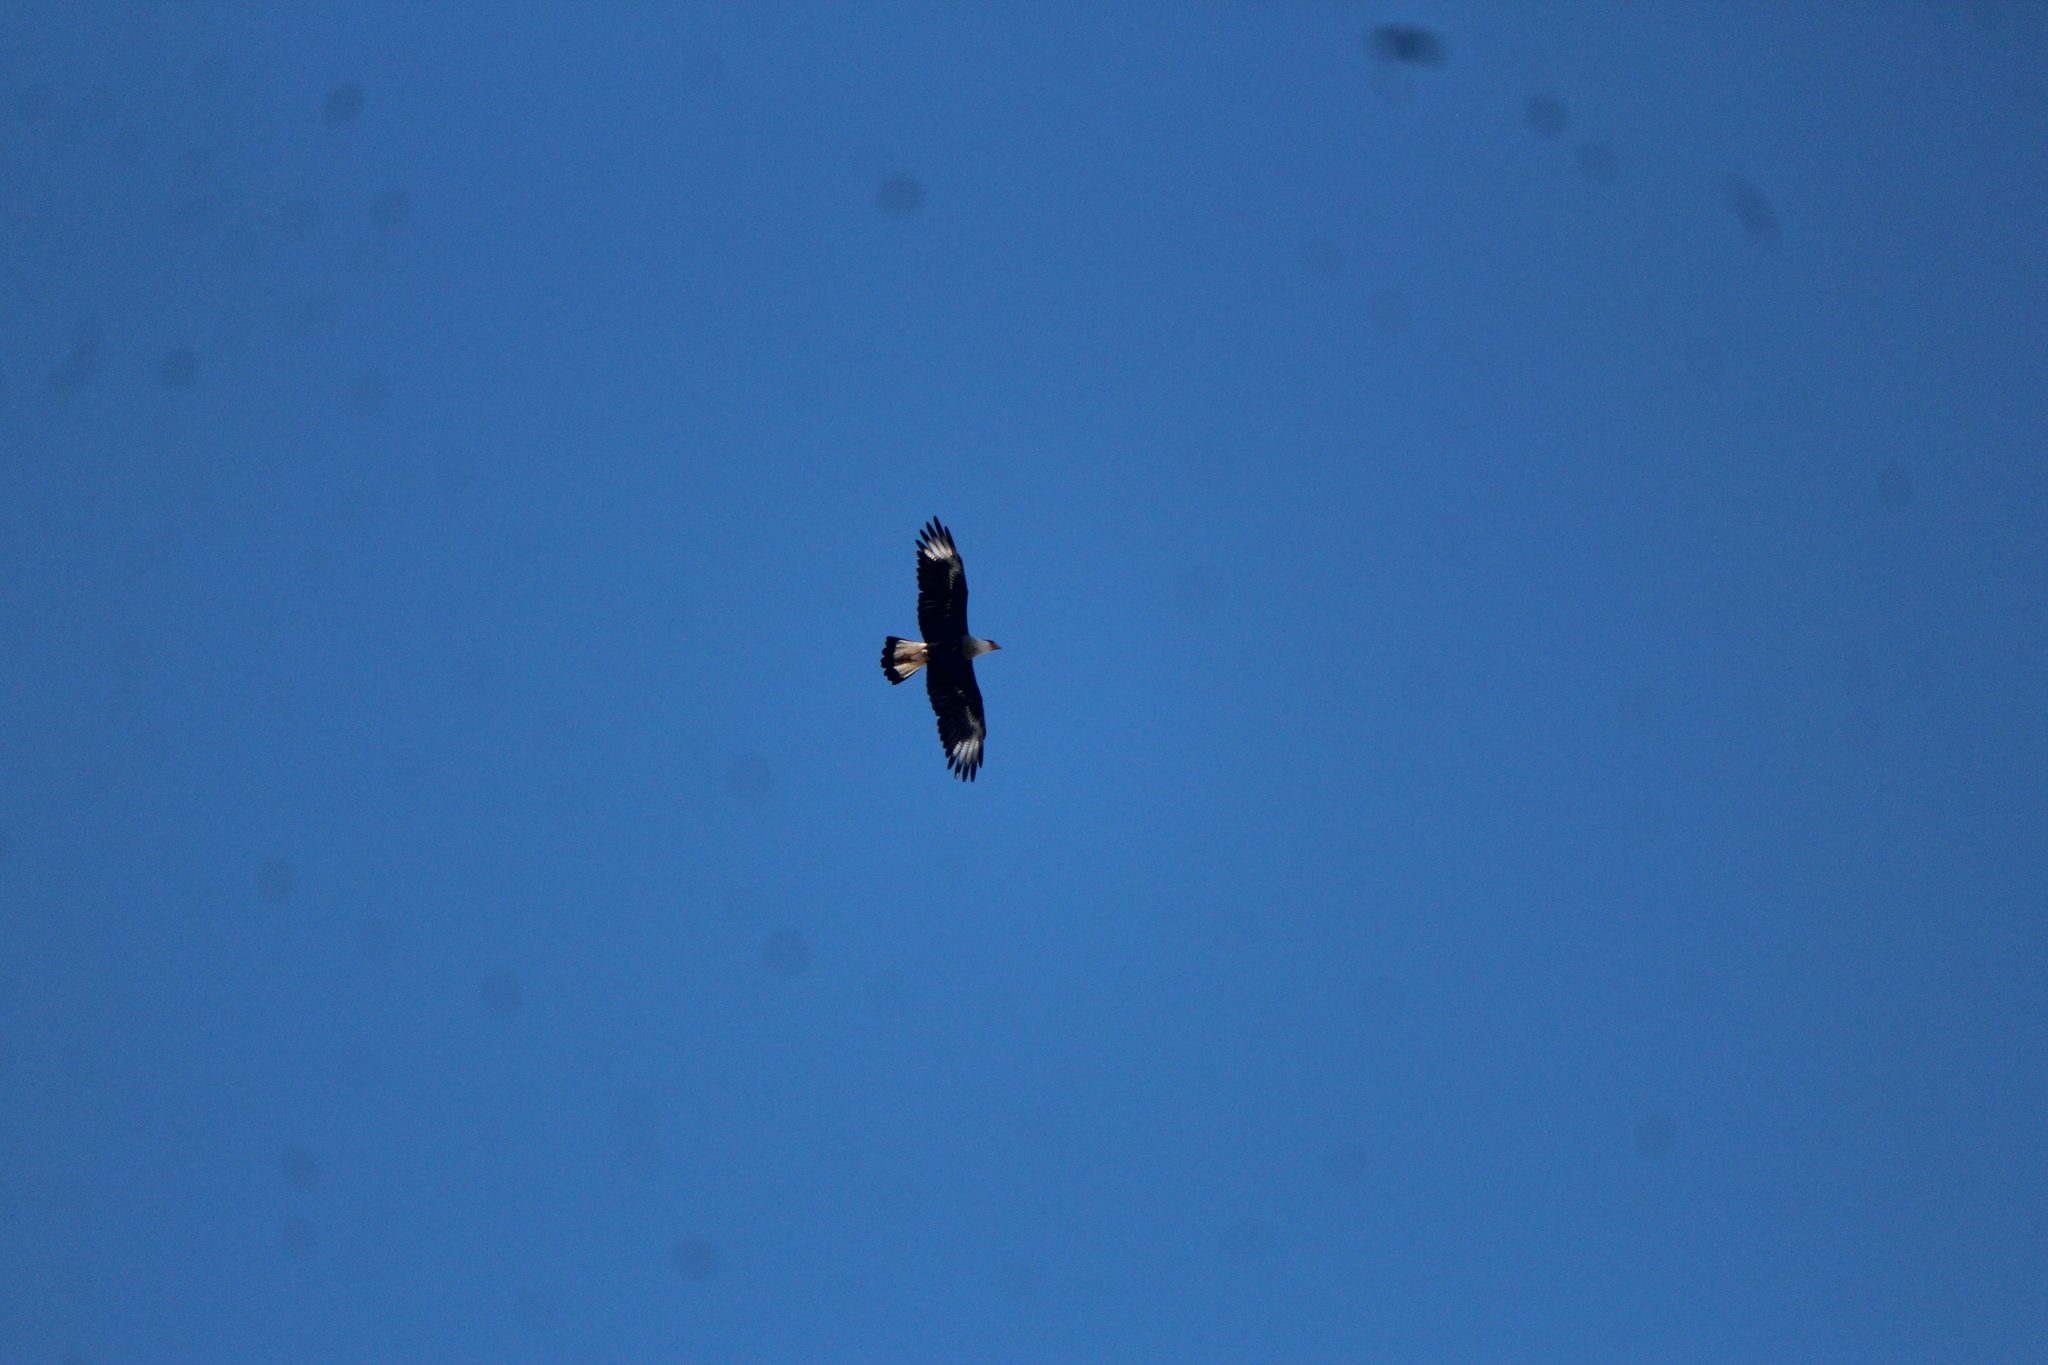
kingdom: Animalia
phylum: Chordata
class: Aves
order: Falconiformes
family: Falconidae
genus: Caracara
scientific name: Caracara plancus
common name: Southern caracara
